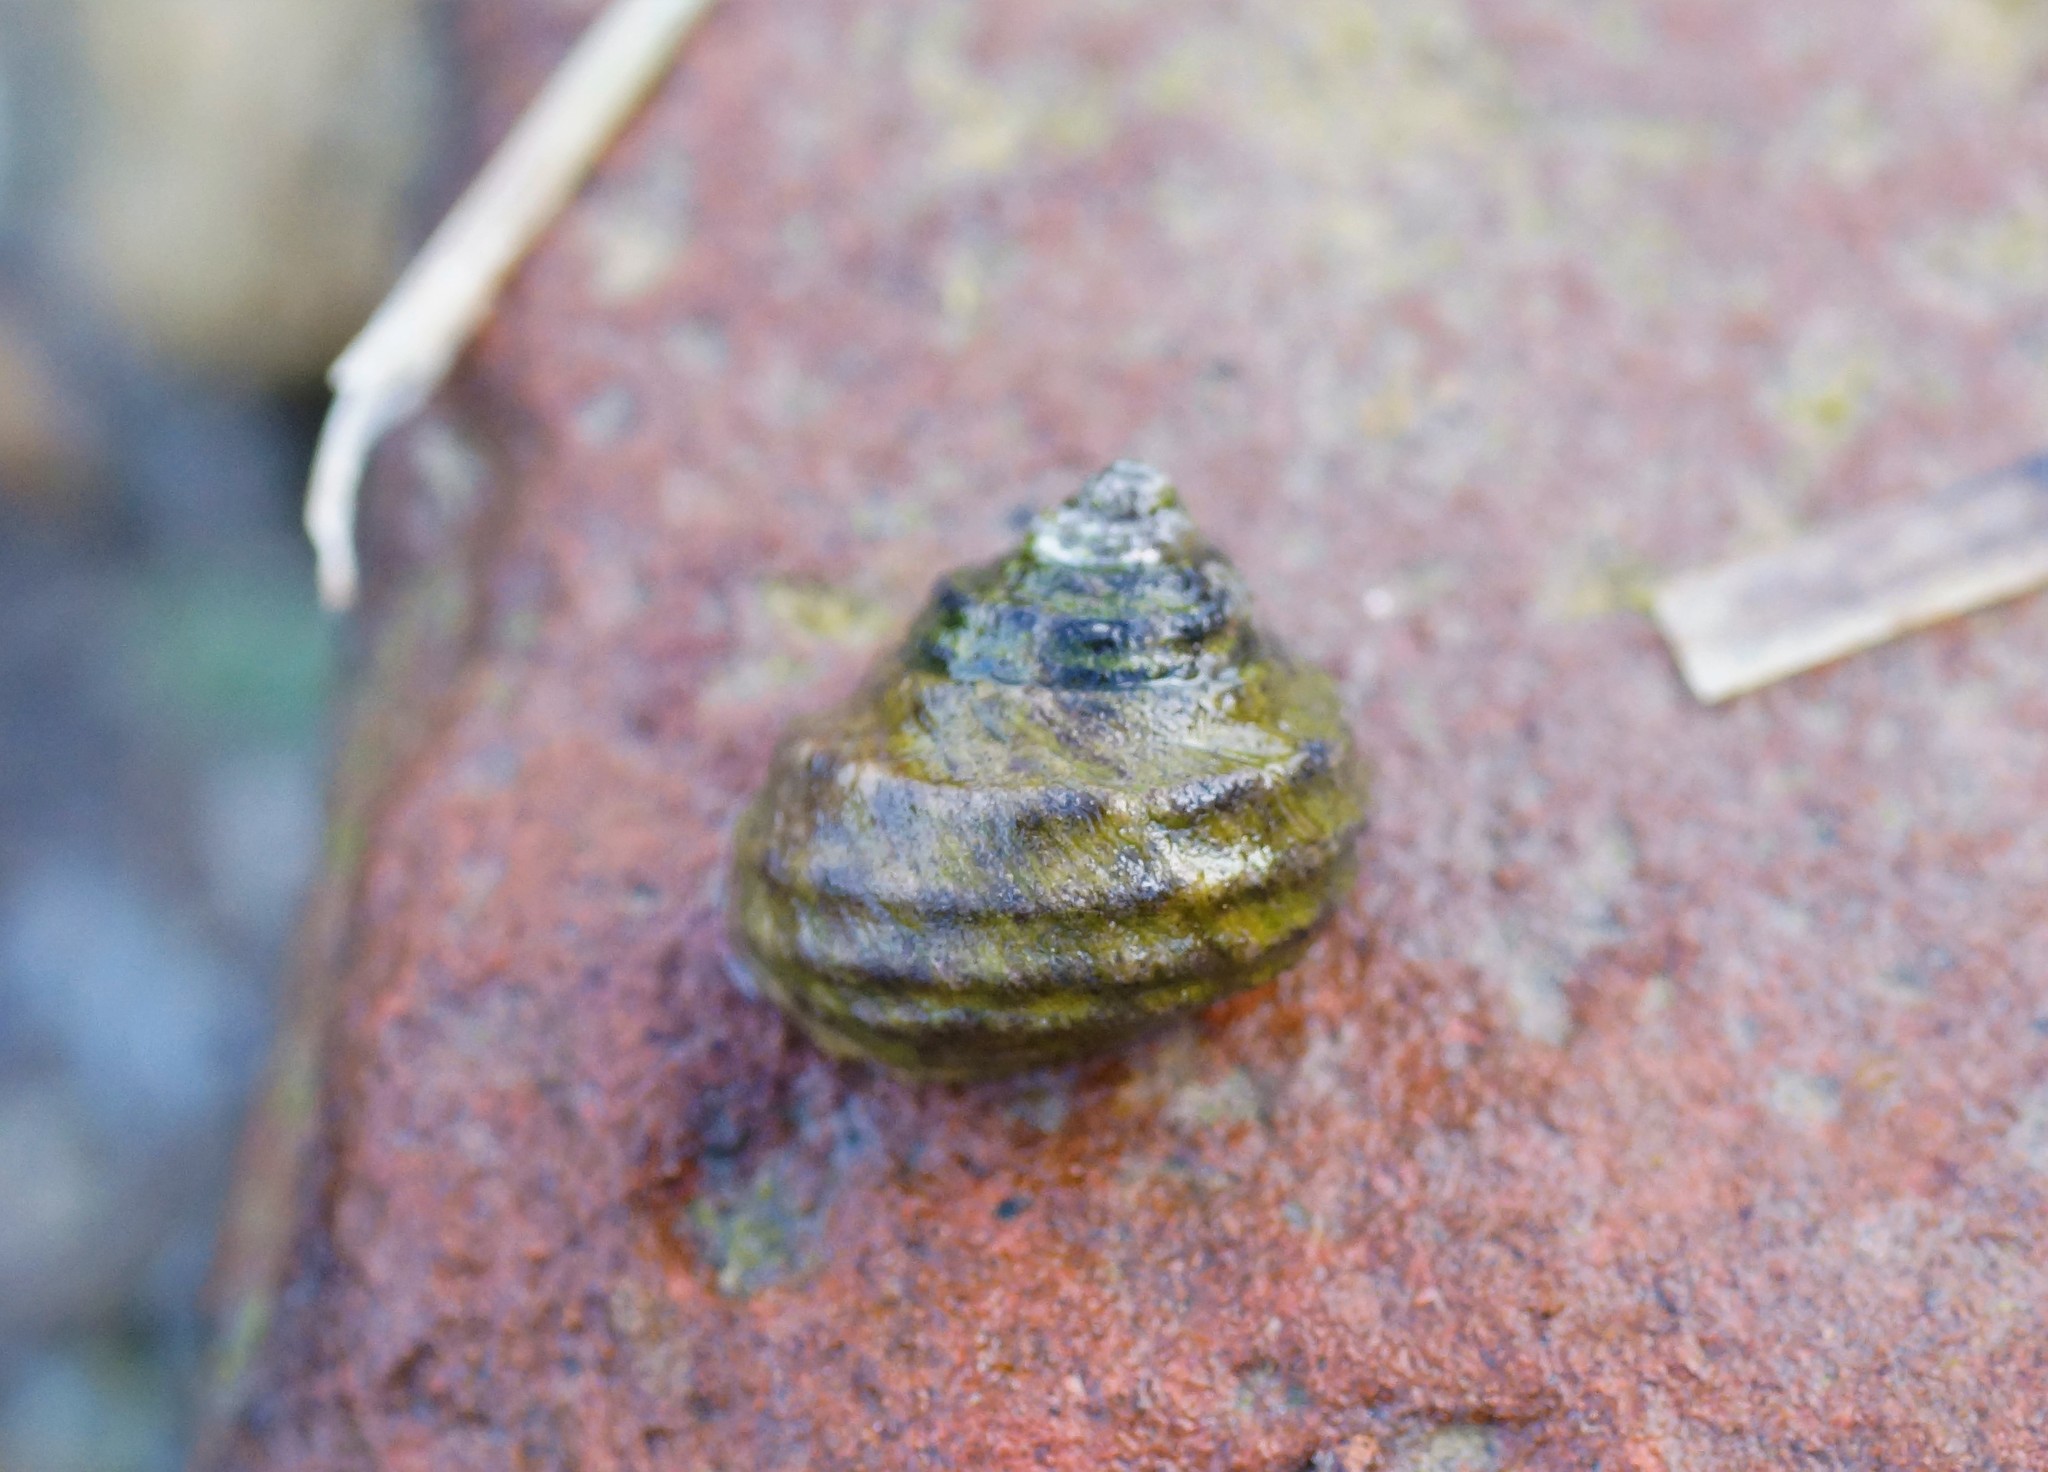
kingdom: Animalia
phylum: Mollusca
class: Gastropoda
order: Trochida
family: Trochidae
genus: Austrocochlea
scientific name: Austrocochlea constricta
